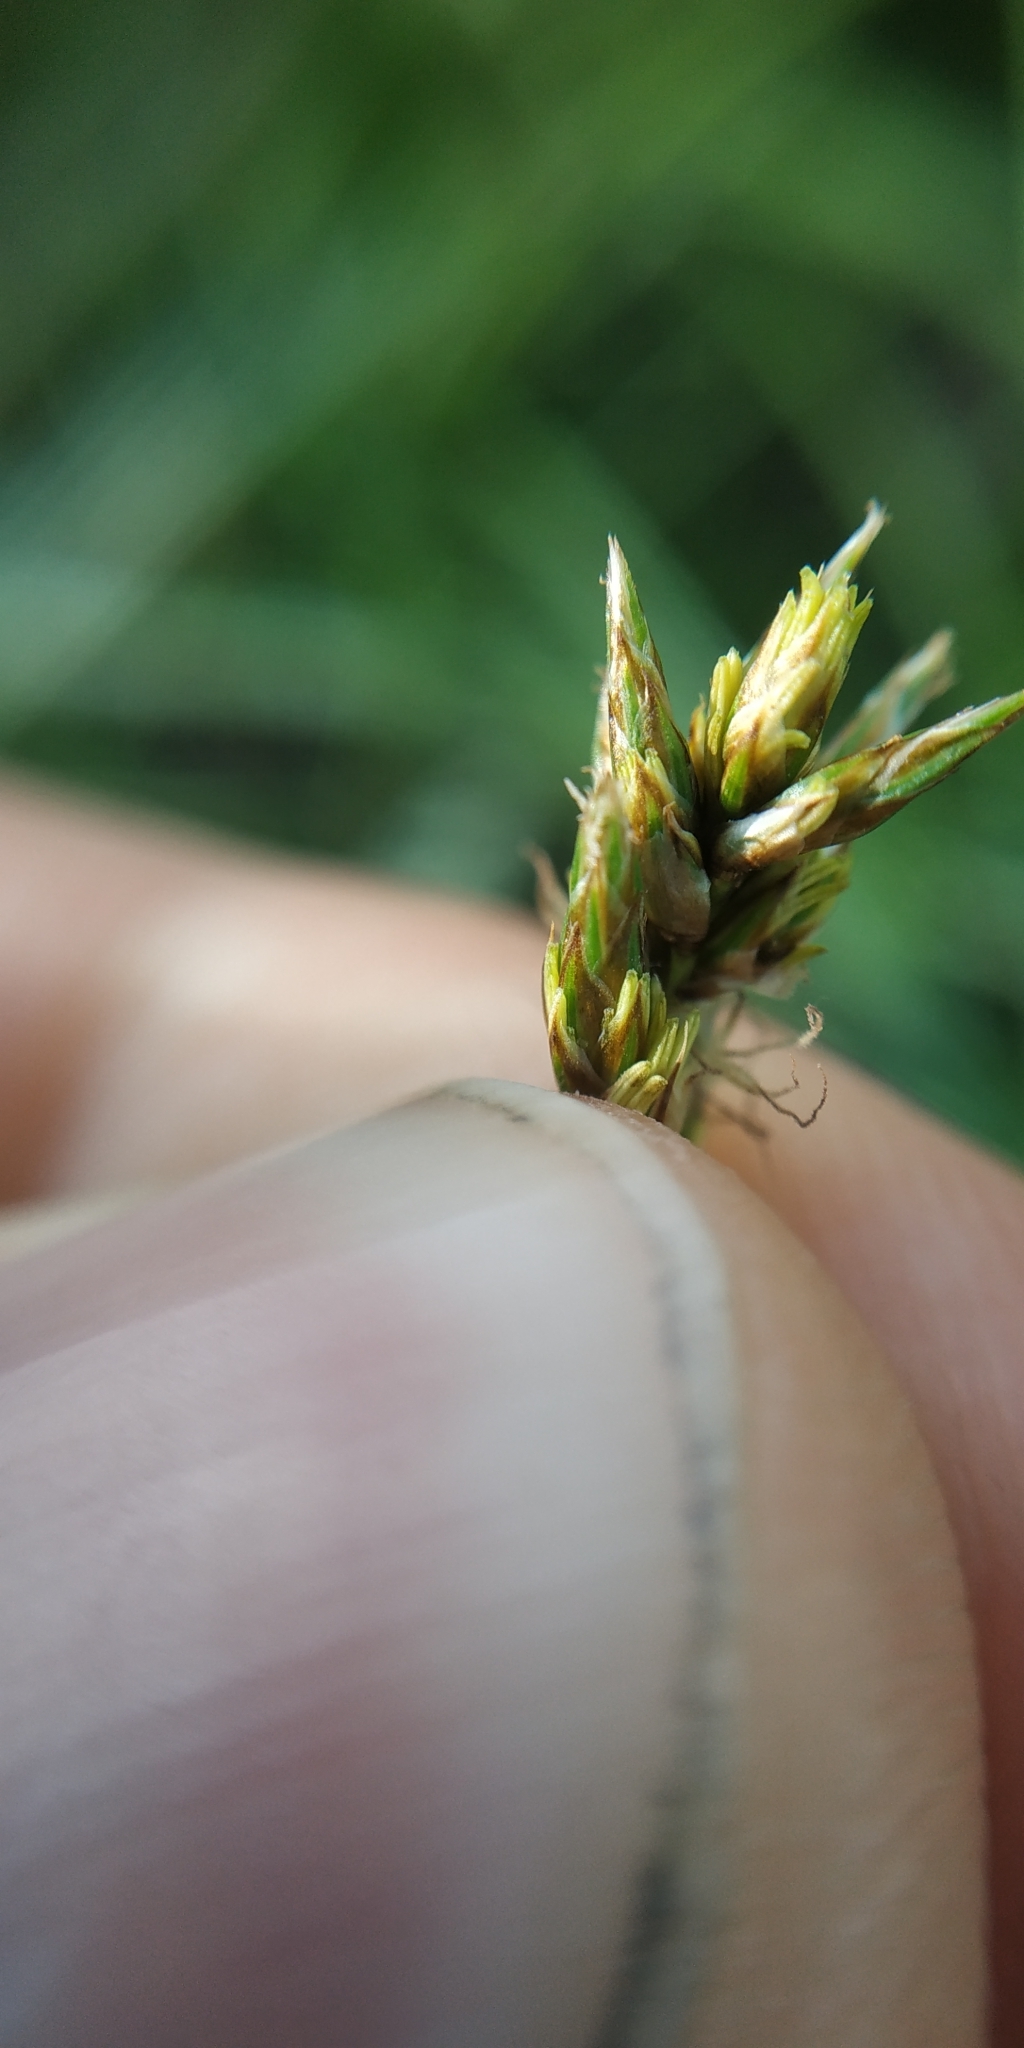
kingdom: Plantae
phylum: Tracheophyta
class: Liliopsida
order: Poales
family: Cyperaceae
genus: Carex
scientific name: Carex praecox
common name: Early sedge
